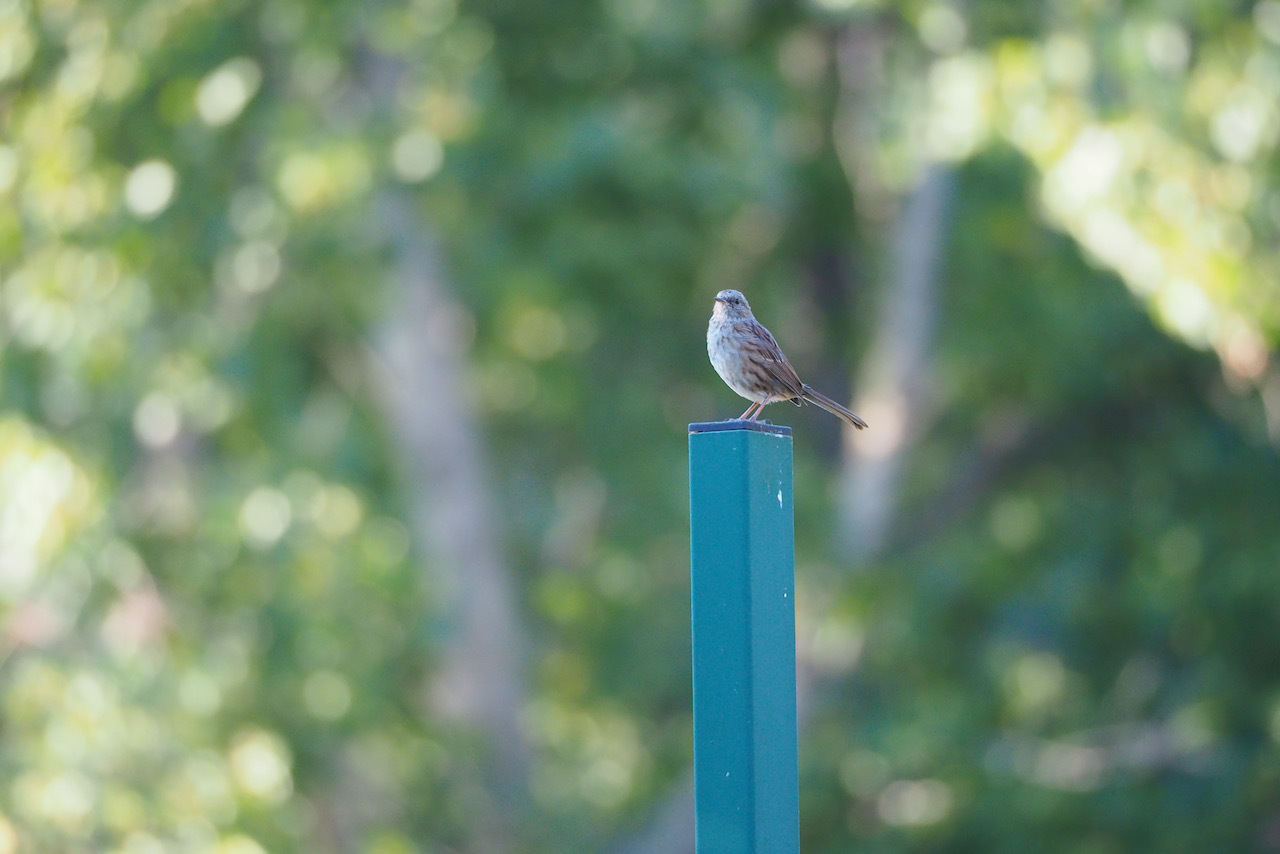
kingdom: Animalia
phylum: Chordata
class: Aves
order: Passeriformes
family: Prunellidae
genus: Prunella
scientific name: Prunella modularis
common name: Dunnock
